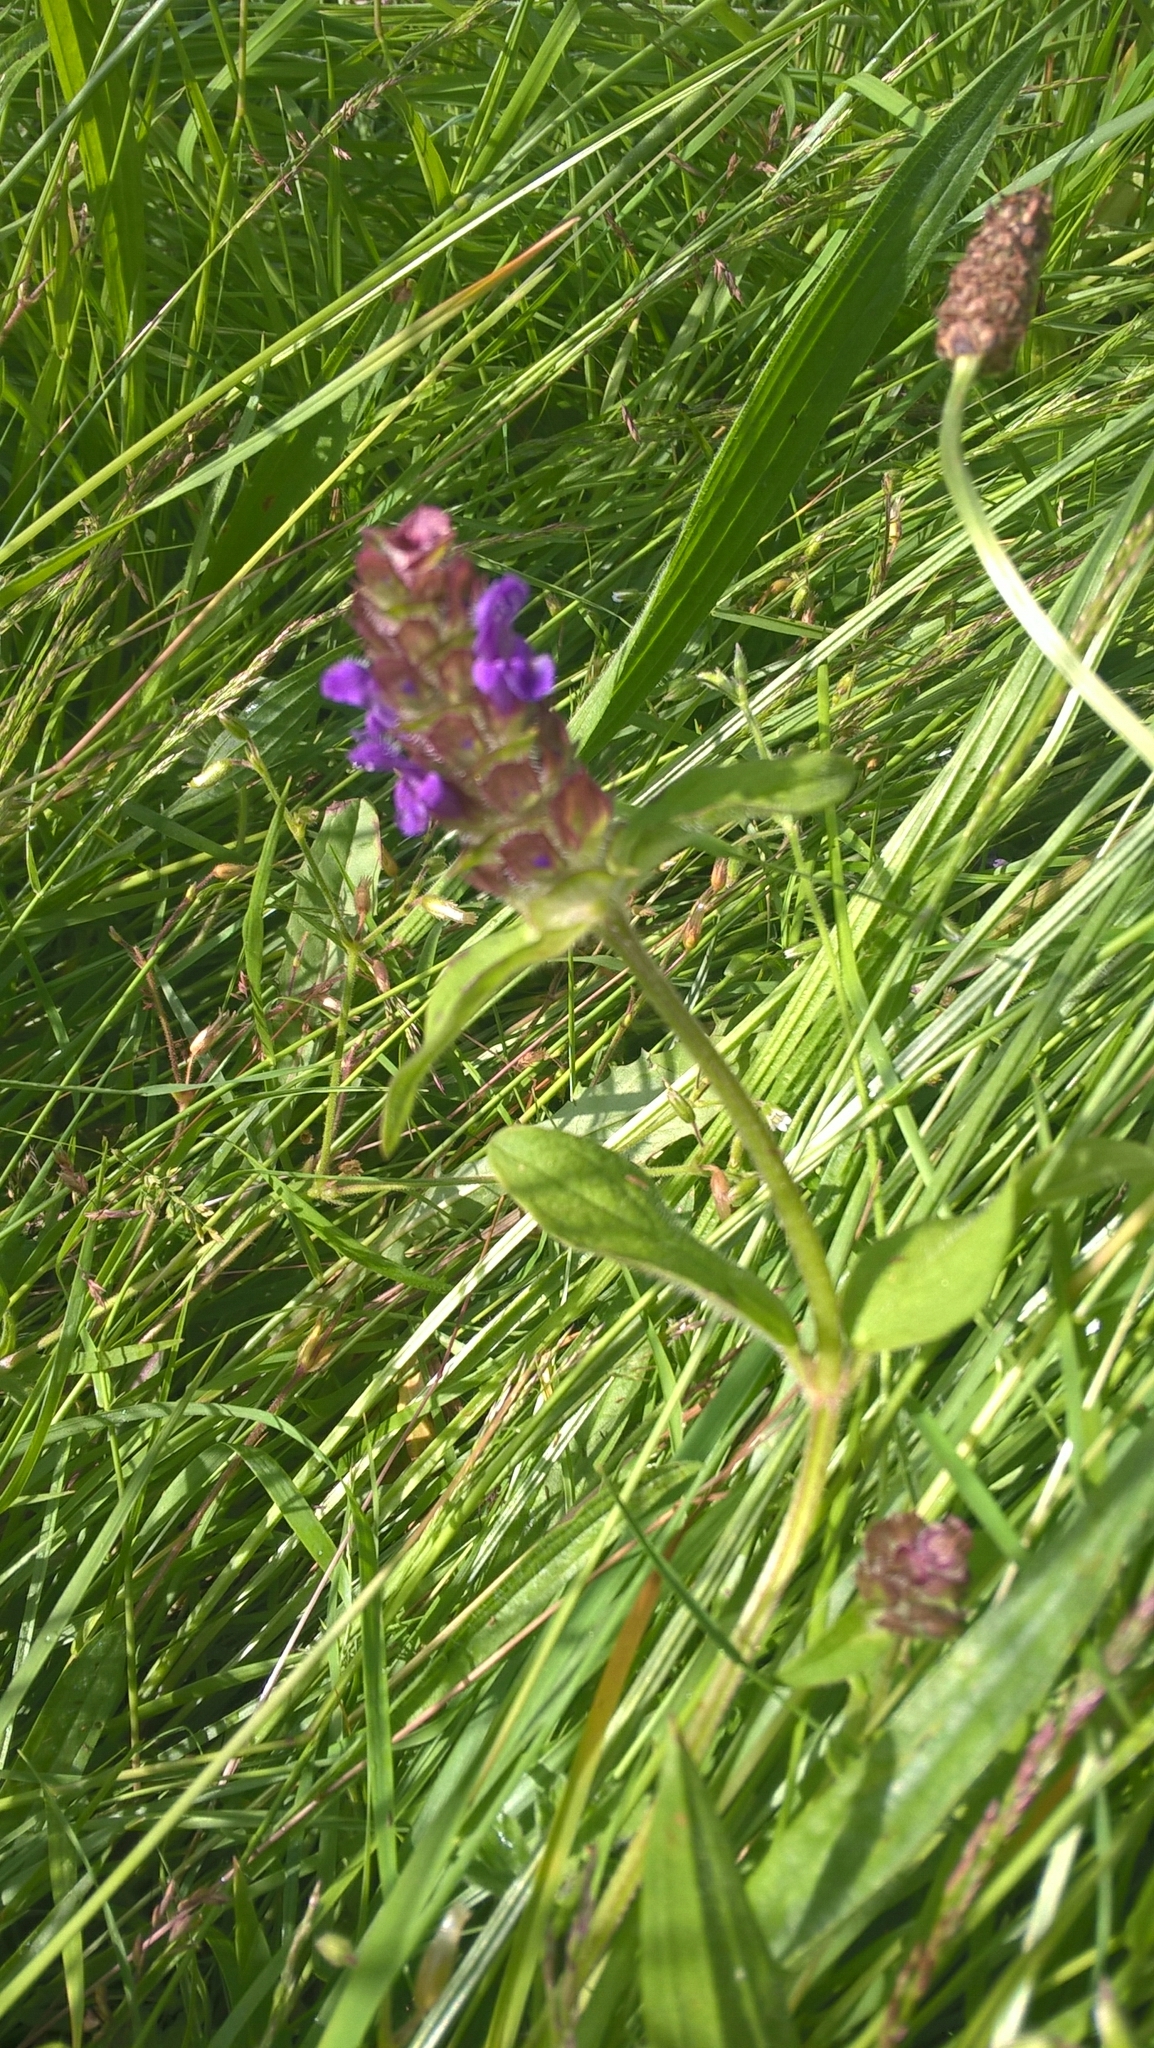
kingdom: Plantae
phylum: Tracheophyta
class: Magnoliopsida
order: Lamiales
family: Lamiaceae
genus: Prunella
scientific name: Prunella vulgaris
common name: Heal-all
